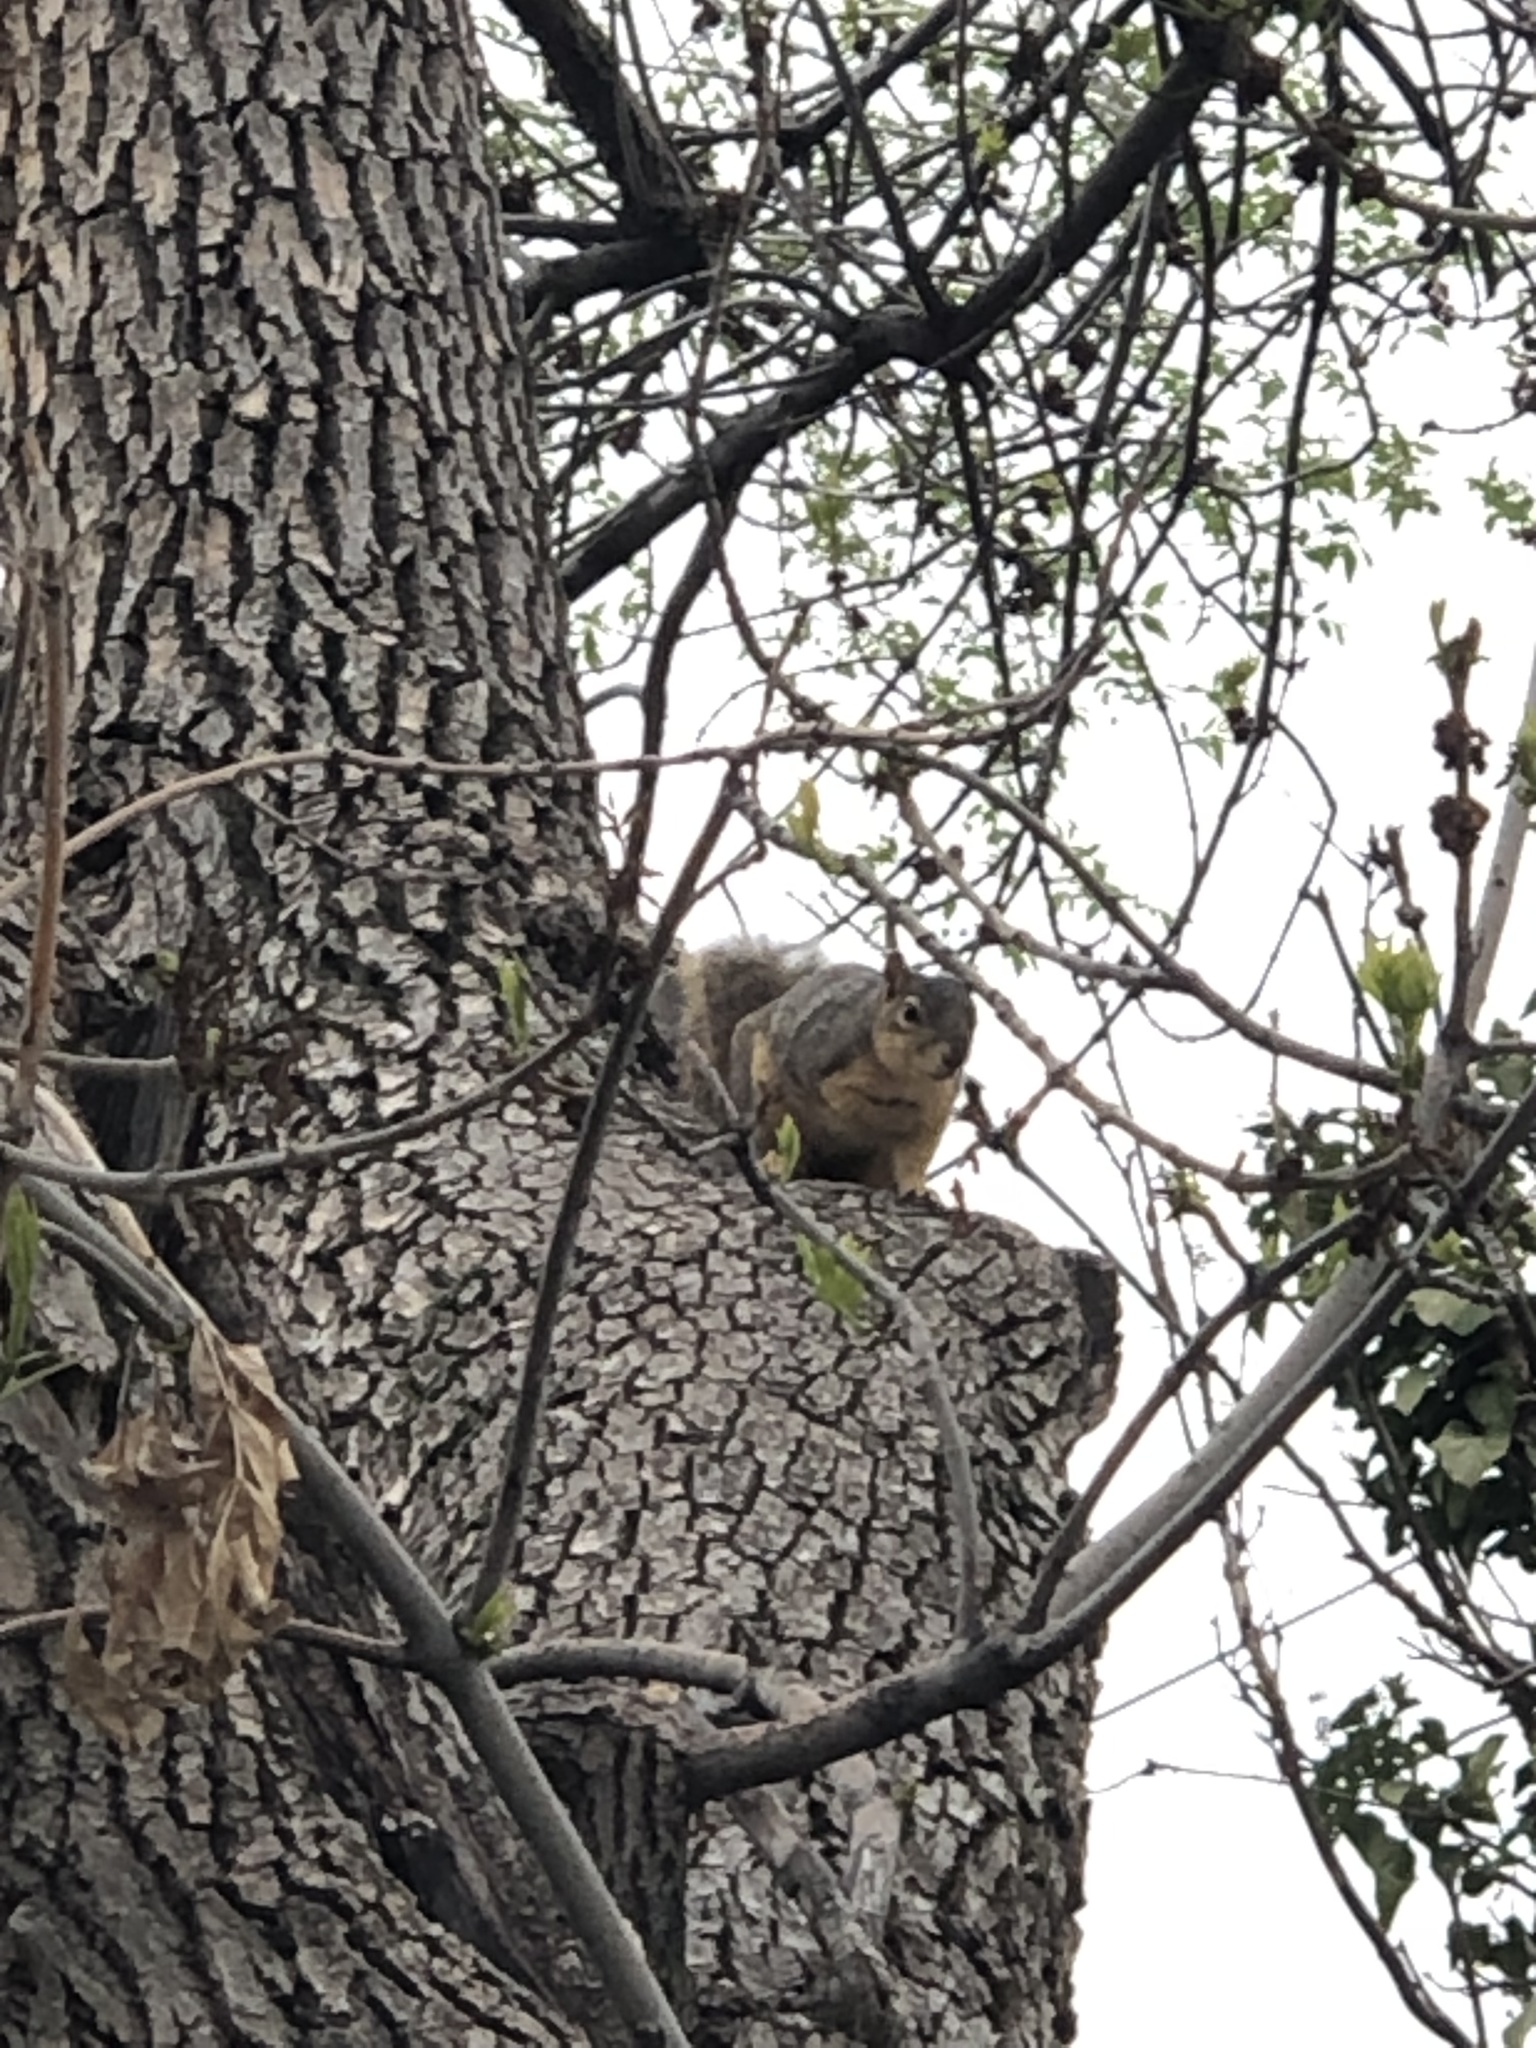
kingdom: Animalia
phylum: Chordata
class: Mammalia
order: Rodentia
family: Sciuridae
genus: Sciurus
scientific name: Sciurus niger
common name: Fox squirrel
